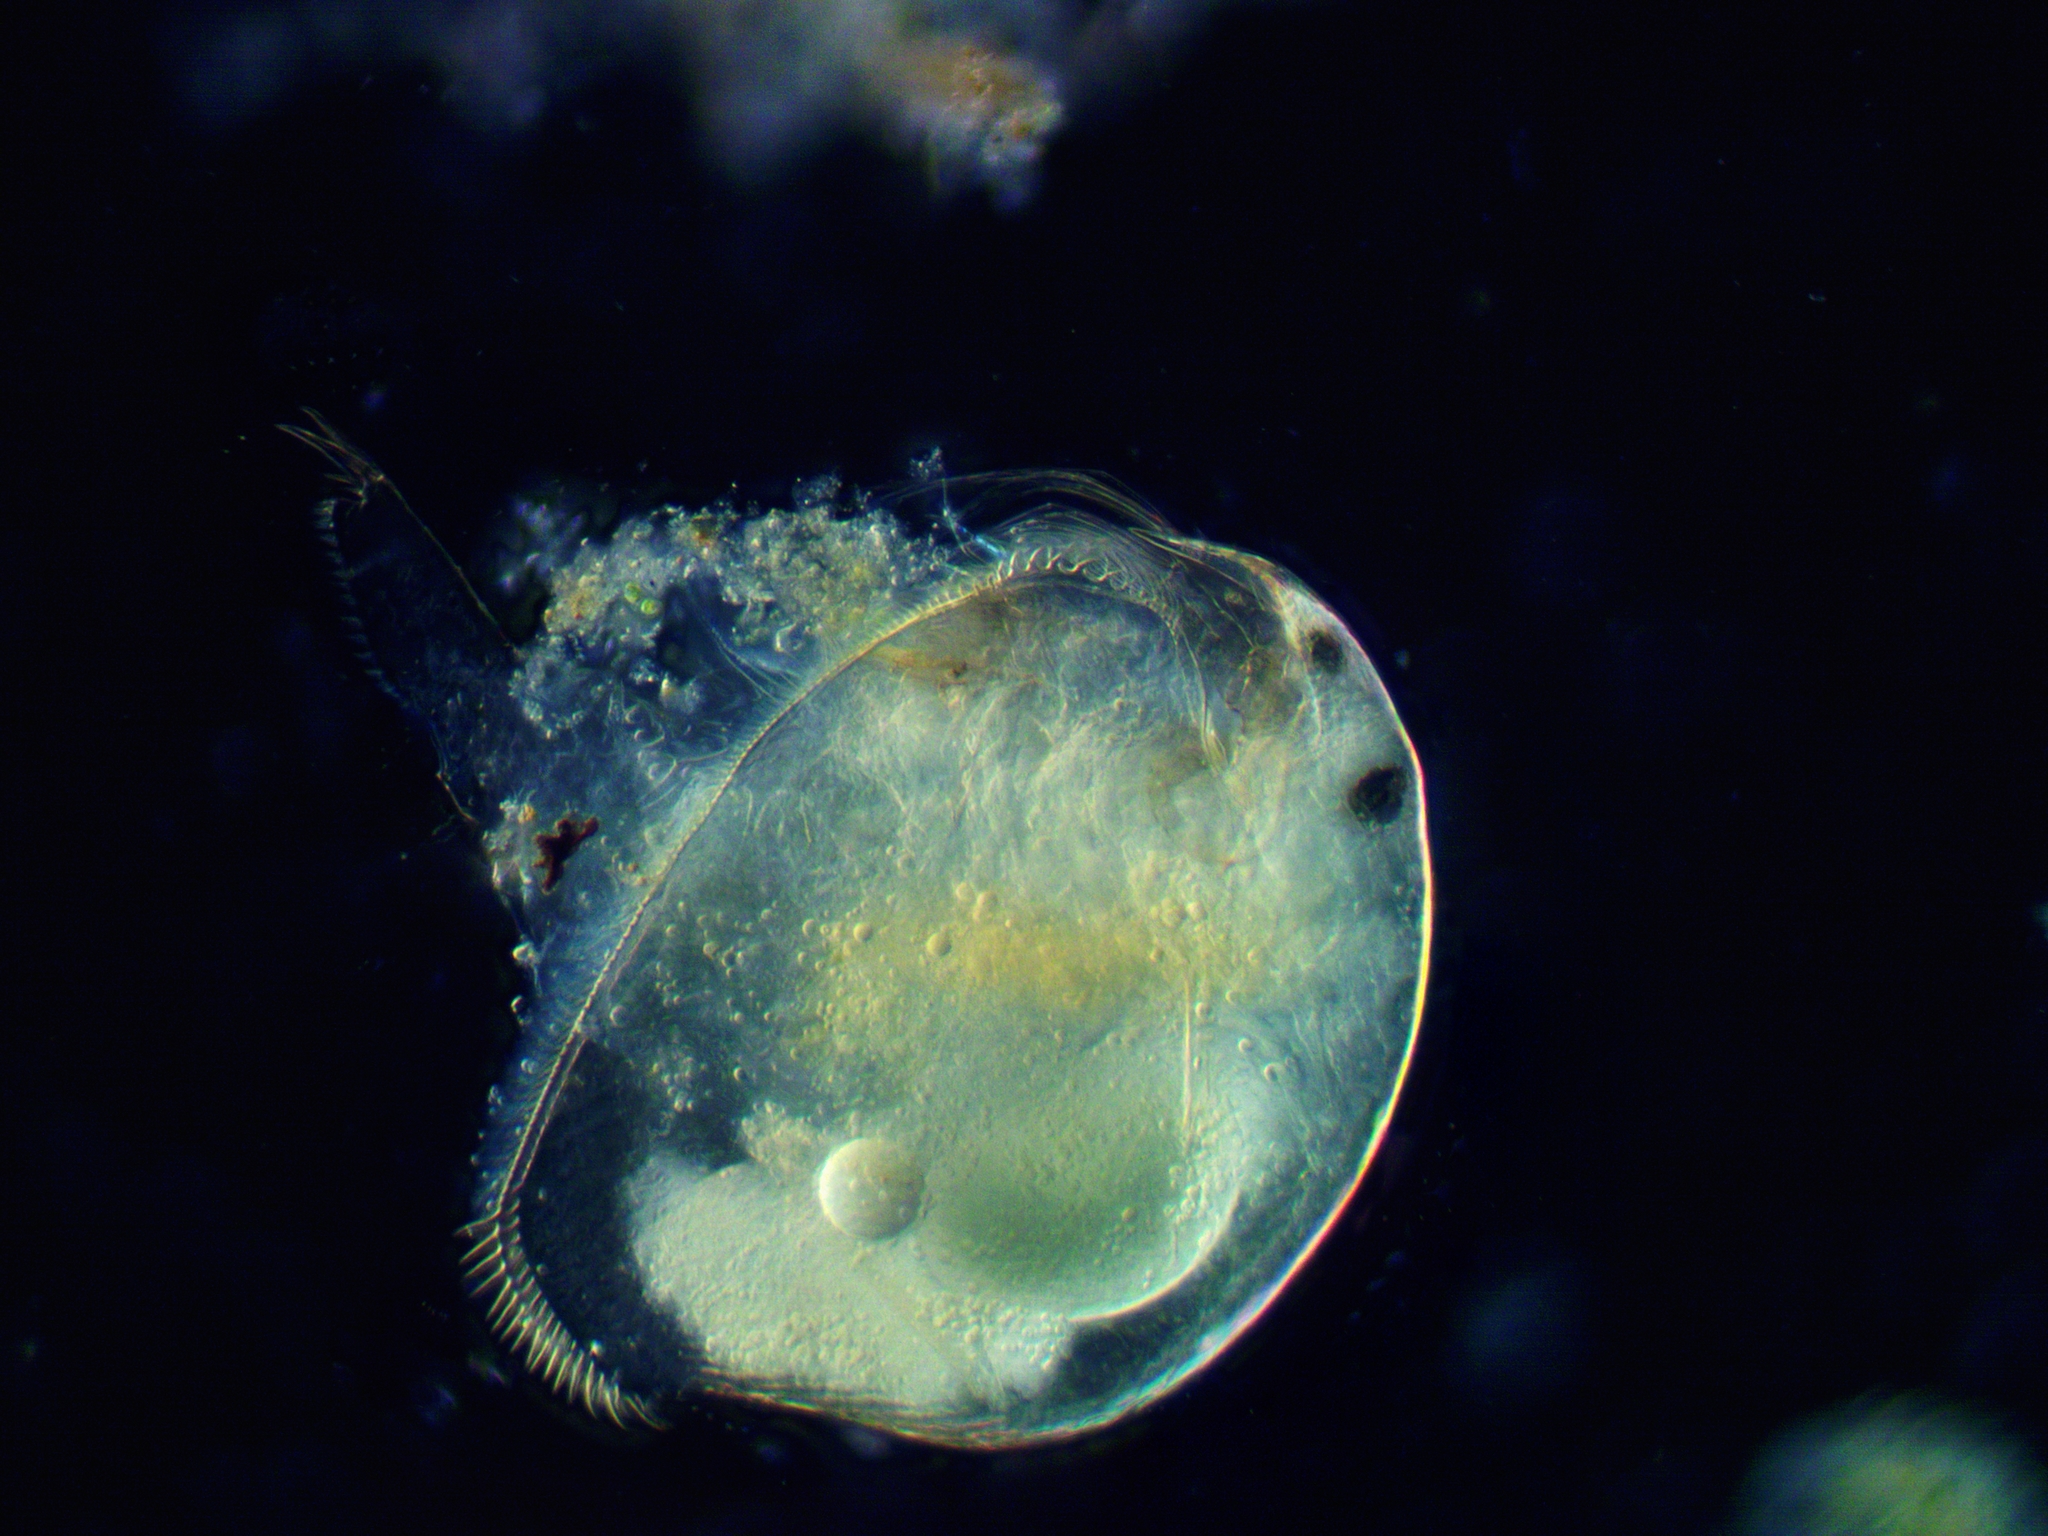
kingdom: Animalia
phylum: Arthropoda
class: Branchiopoda
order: Diplostraca
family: Chydoridae
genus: Peracantha
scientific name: Peracantha truncata
